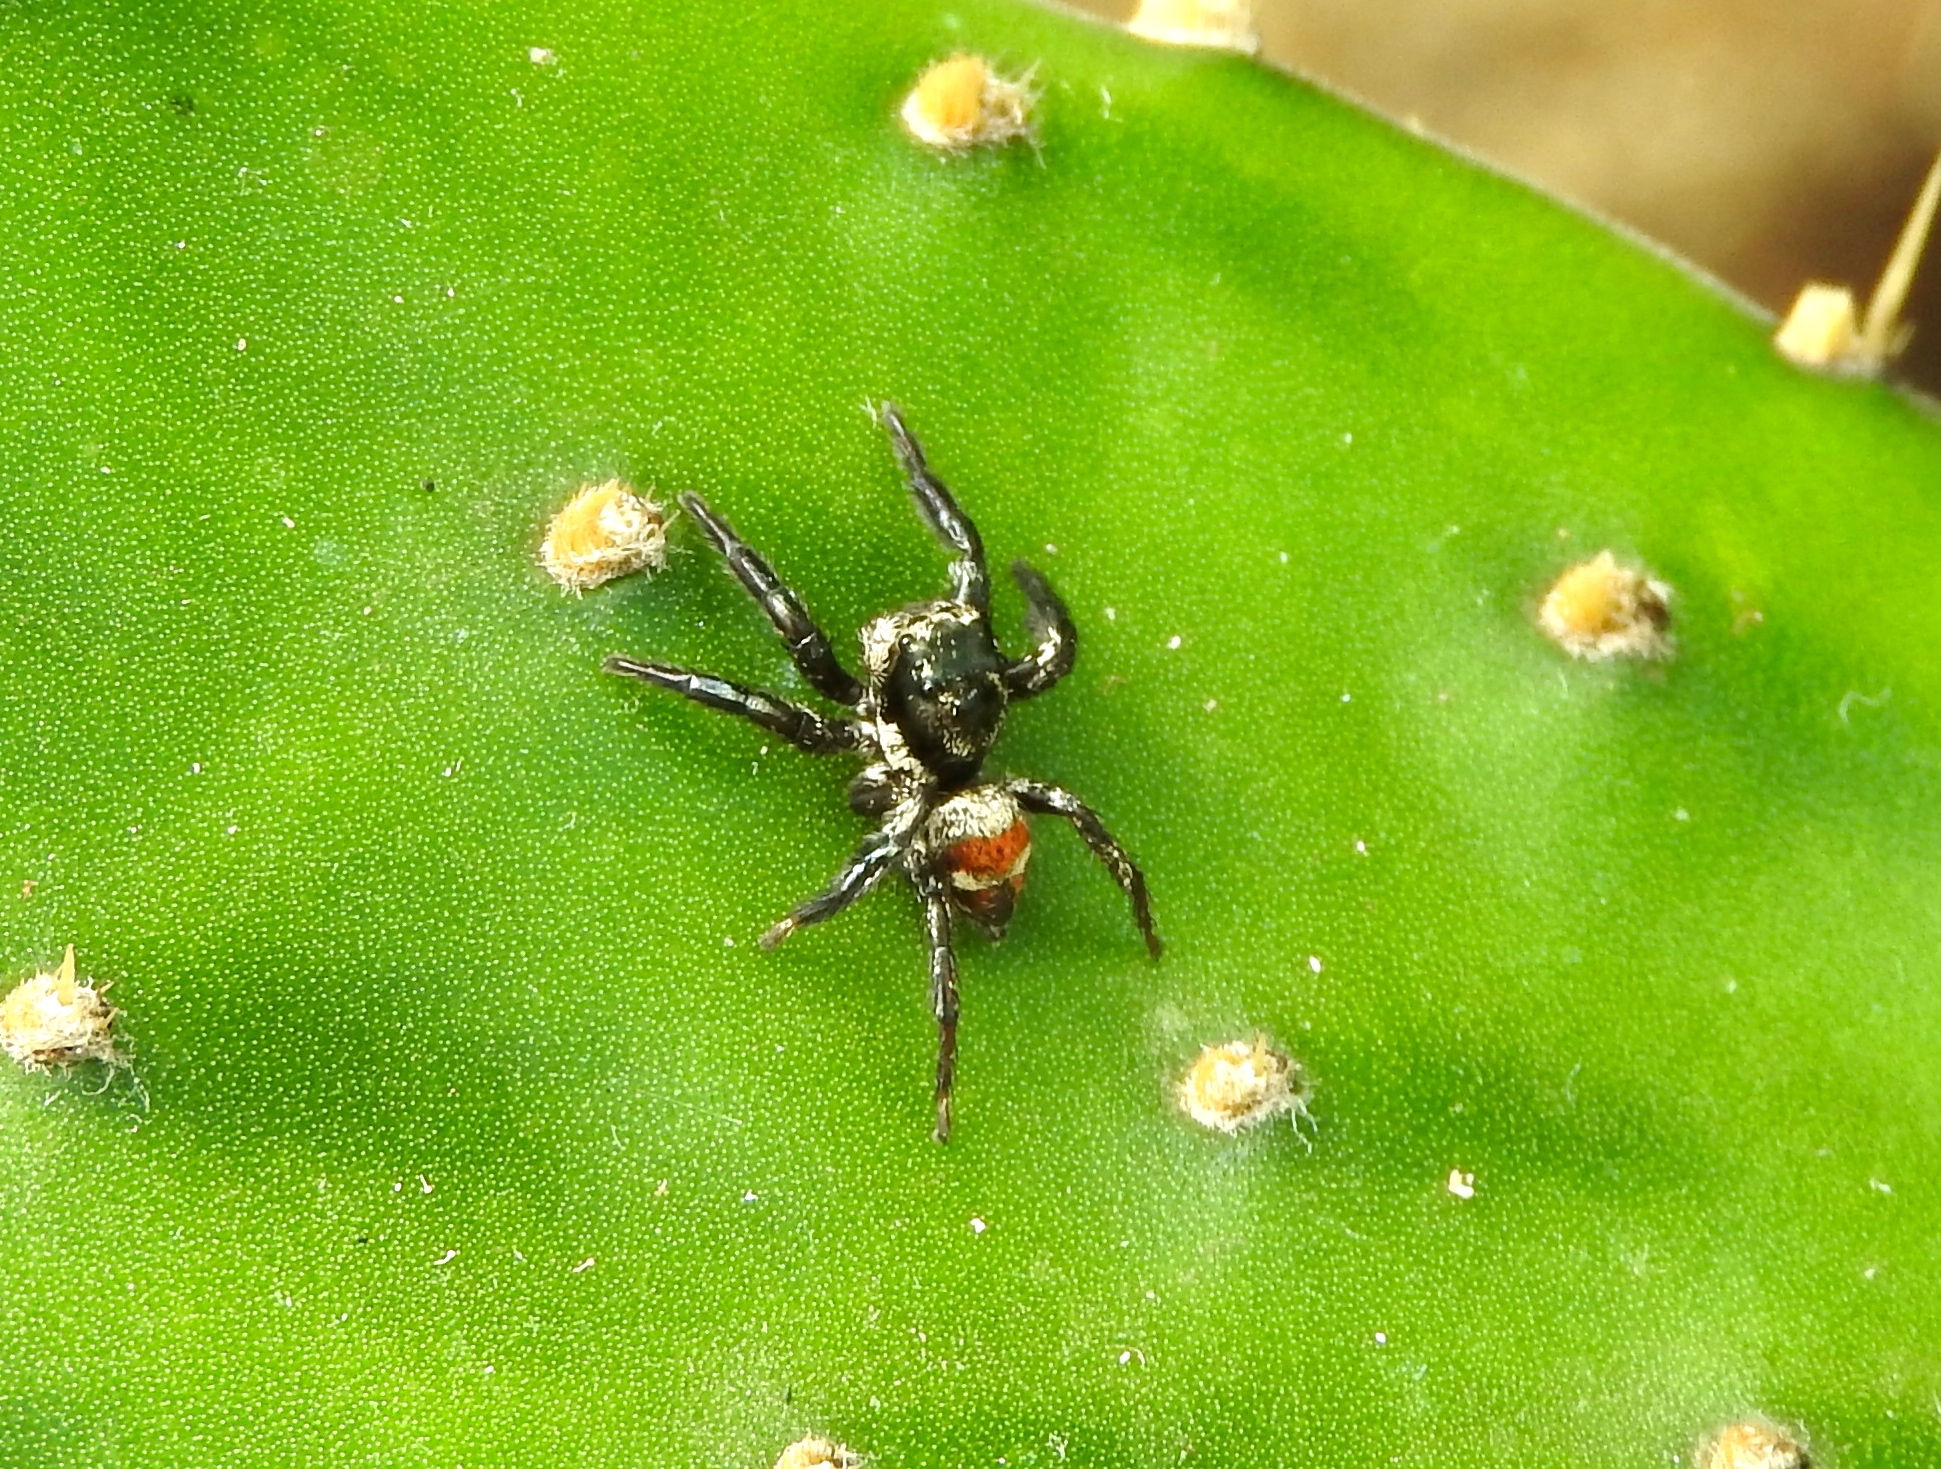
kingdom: Animalia
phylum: Arthropoda
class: Arachnida
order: Araneae
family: Salticidae
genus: Corythalia
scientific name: Corythalia
